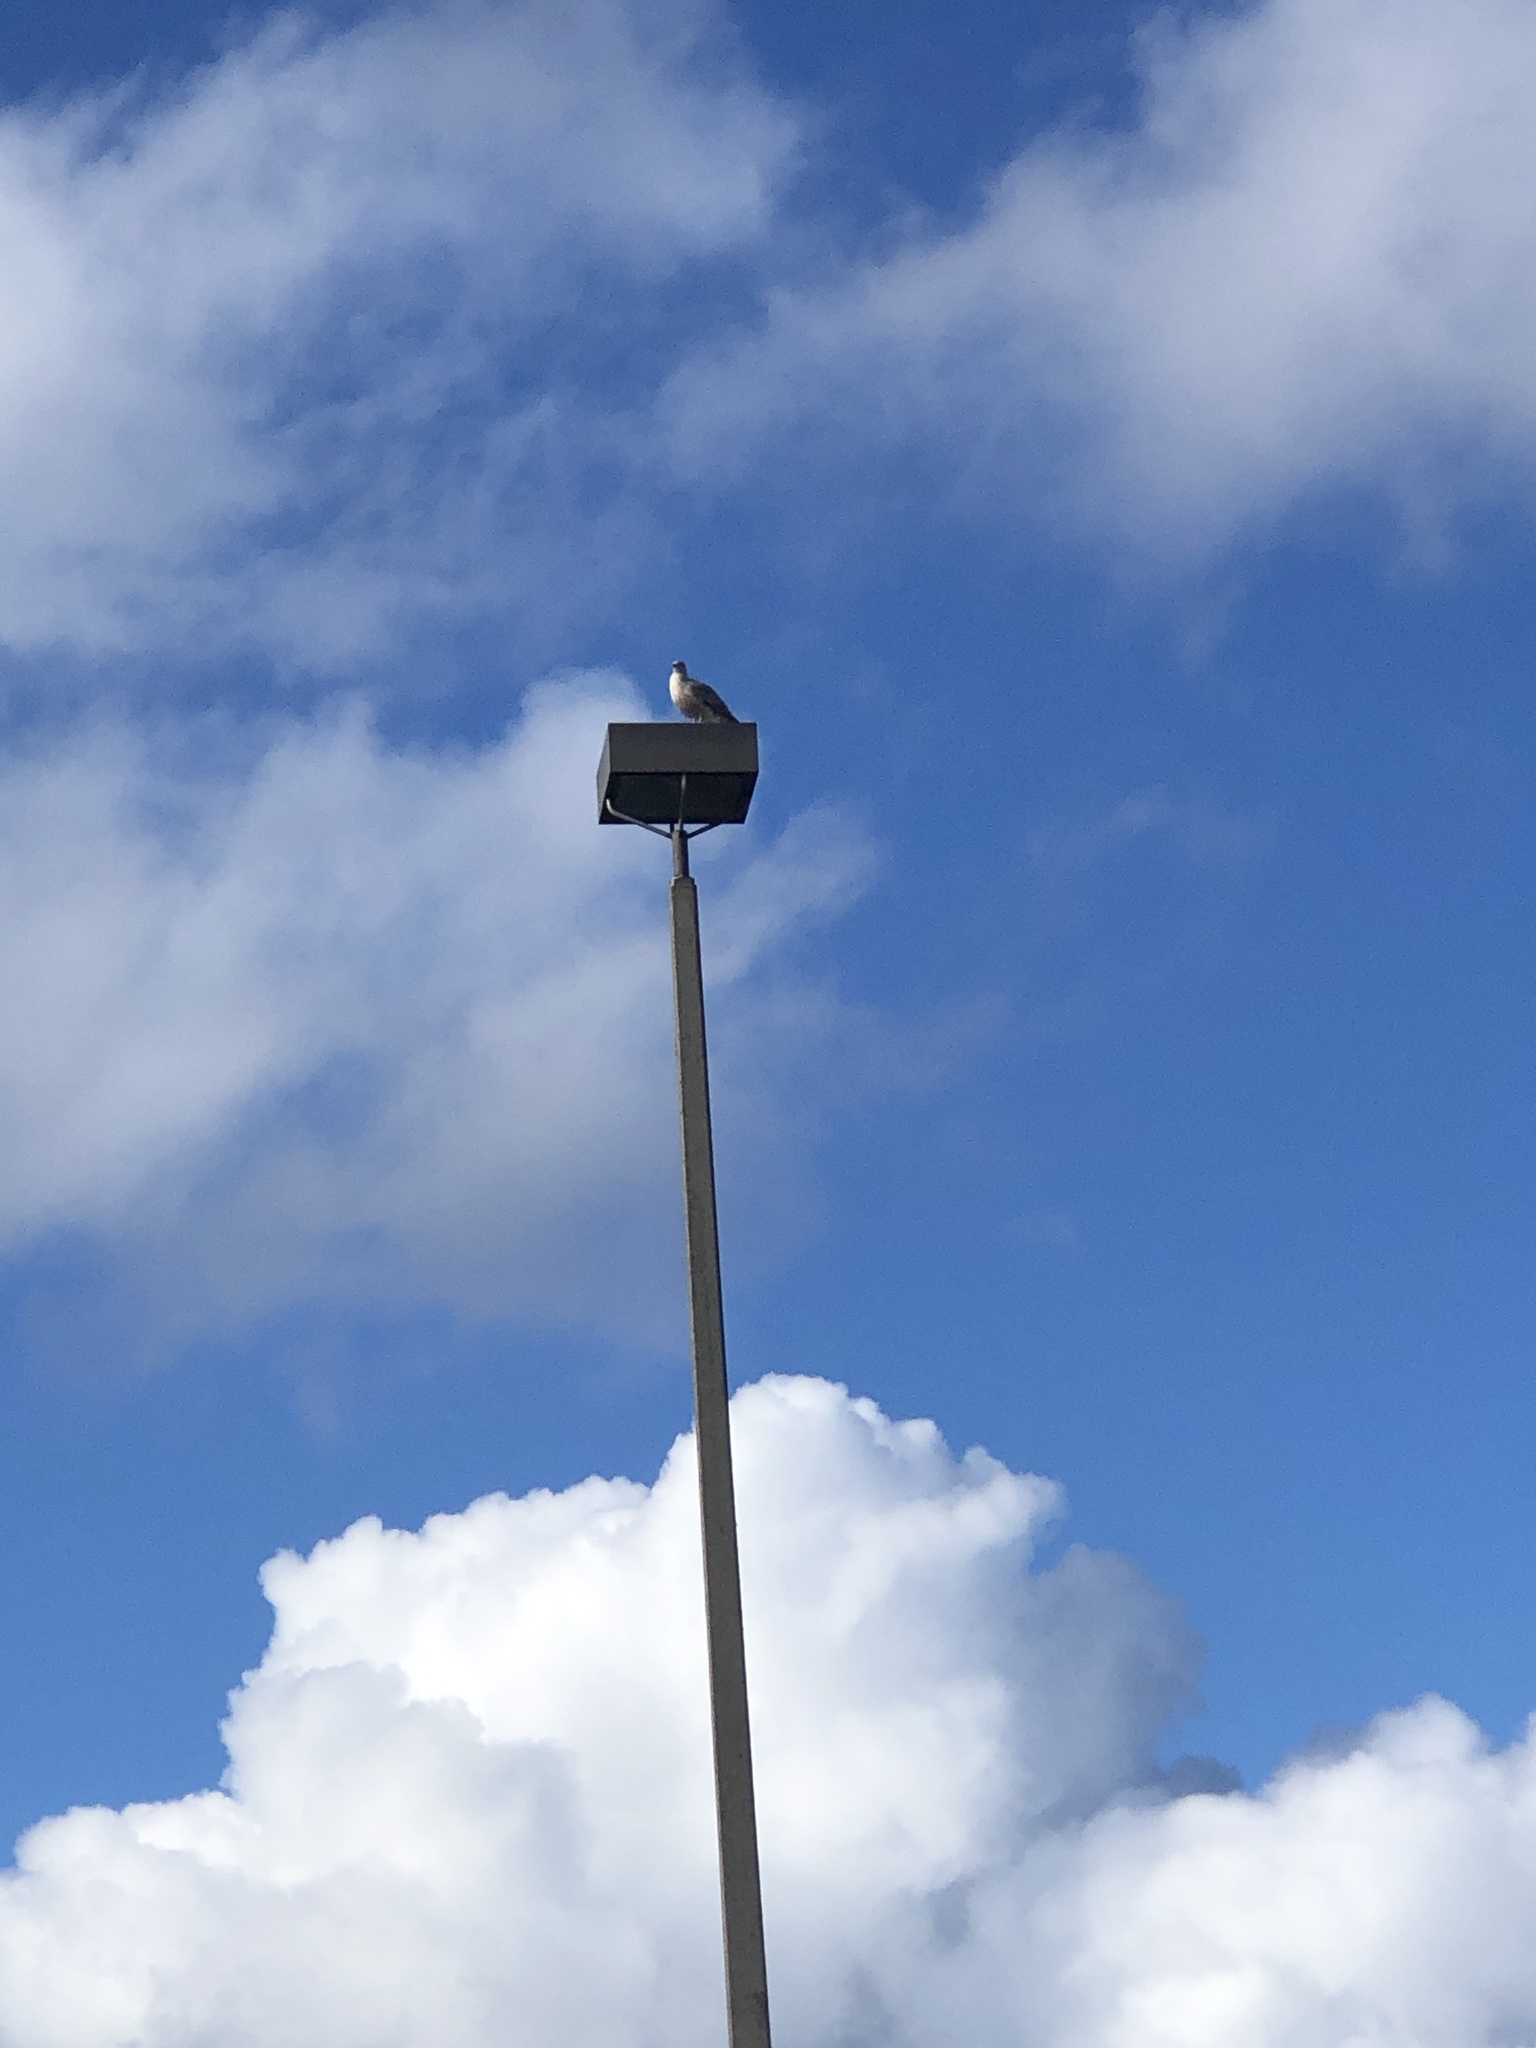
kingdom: Animalia
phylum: Chordata
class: Aves
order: Charadriiformes
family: Laridae
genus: Larus
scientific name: Larus
